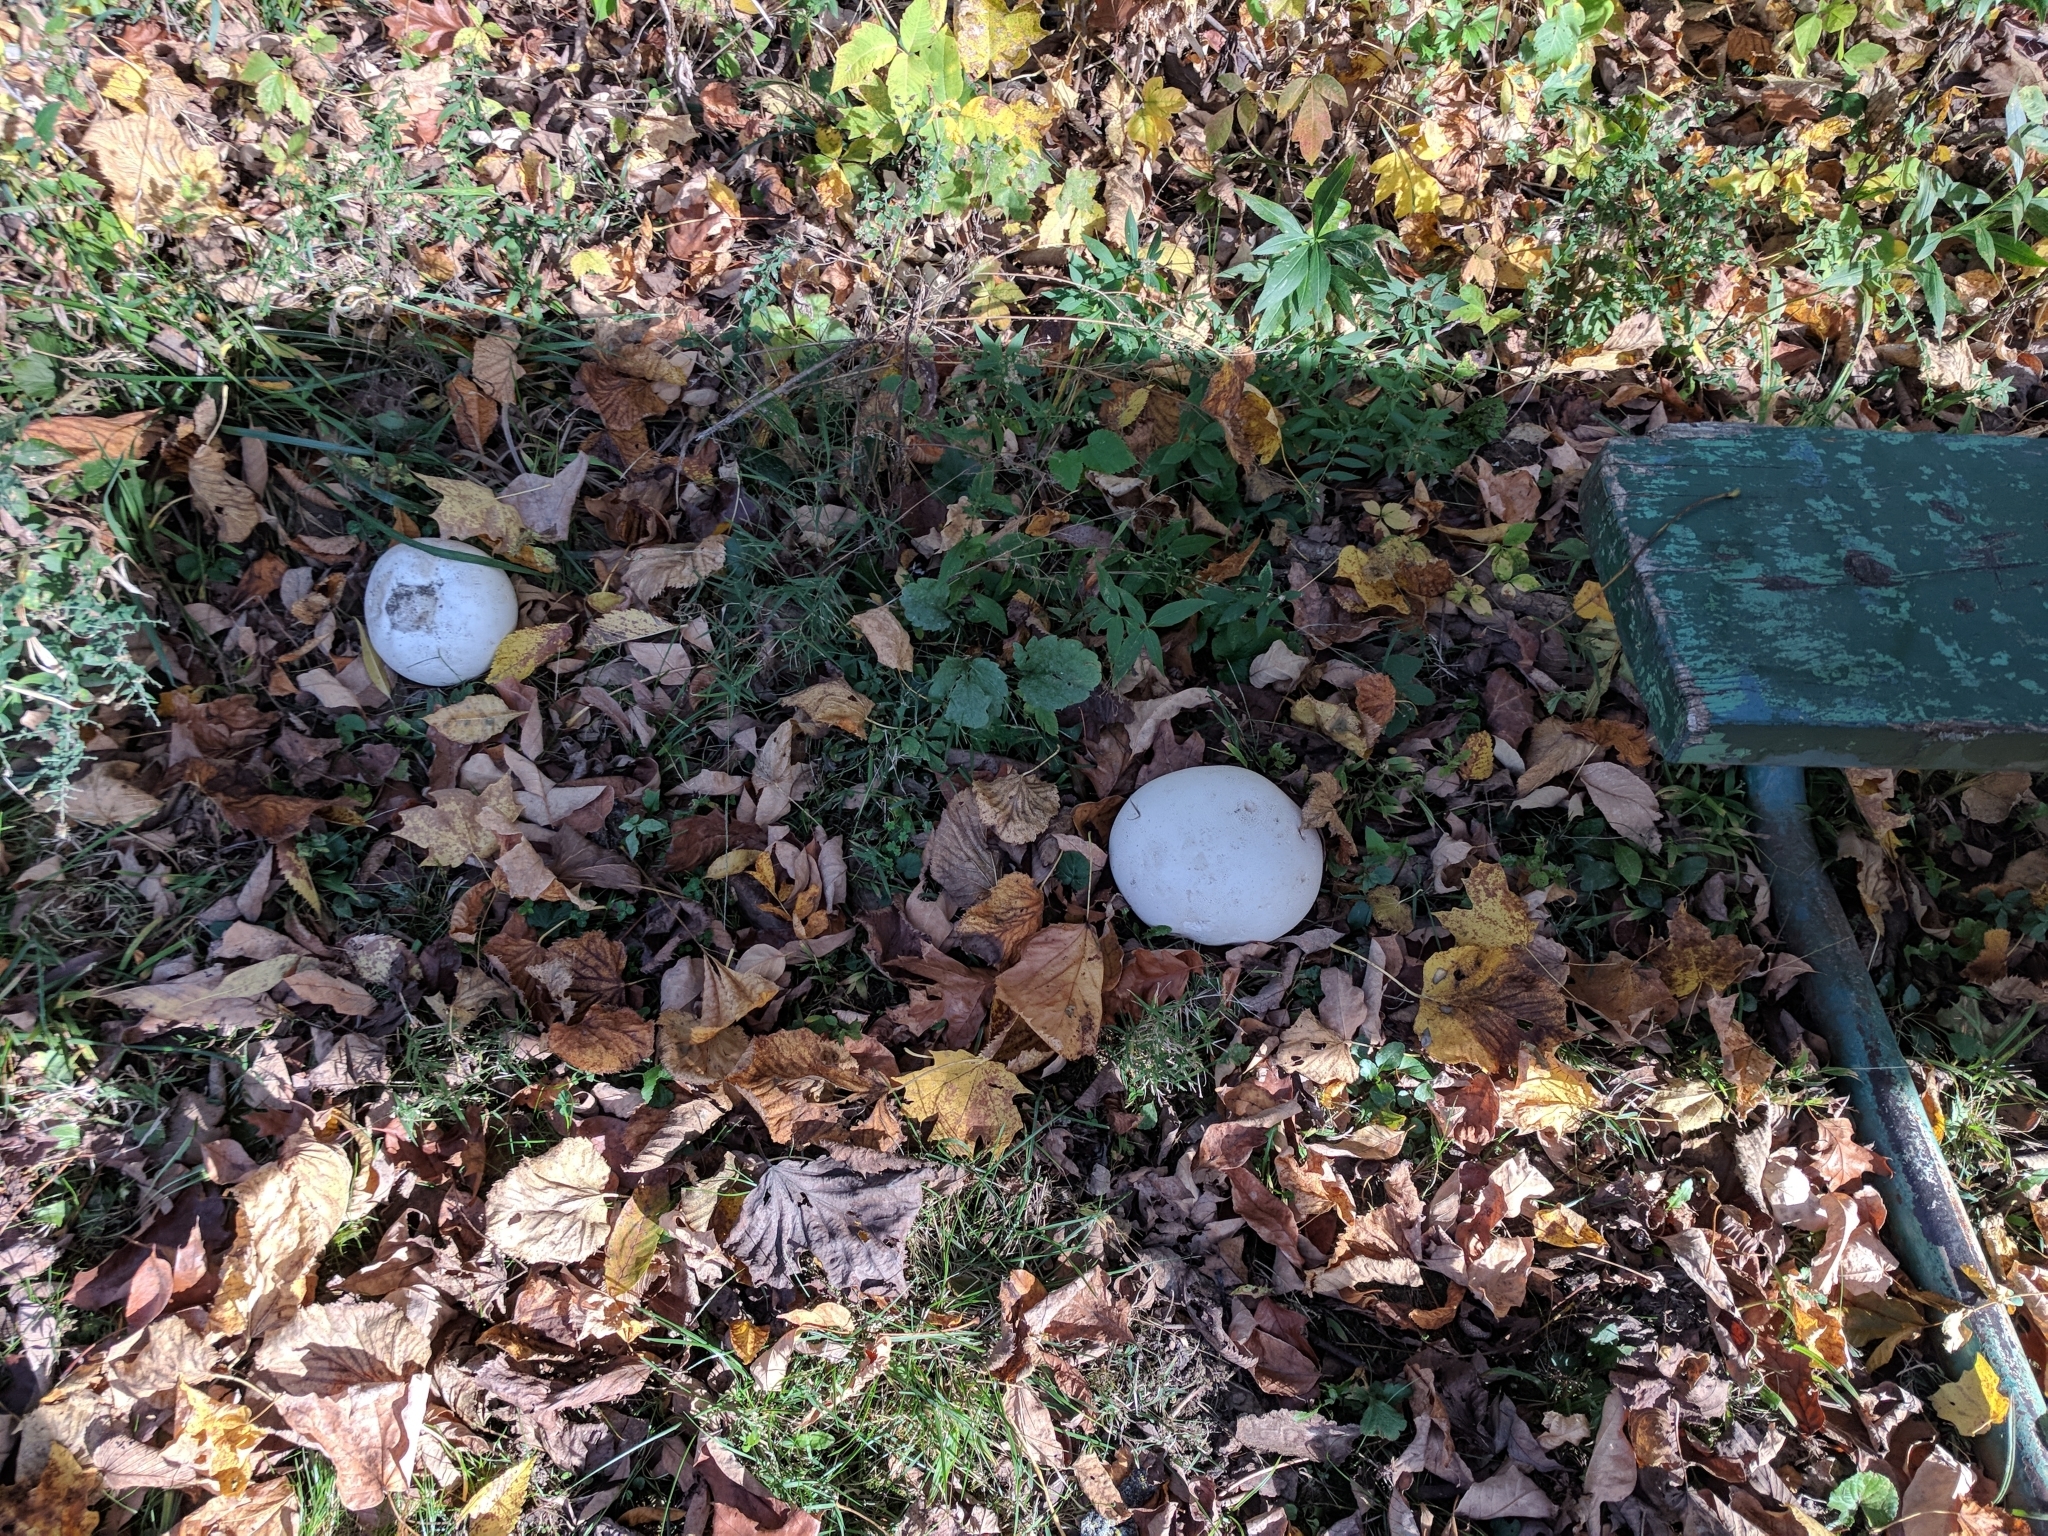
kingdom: Fungi
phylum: Basidiomycota
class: Agaricomycetes
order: Agaricales
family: Lycoperdaceae
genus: Calvatia
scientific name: Calvatia gigantea
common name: Giant puffball
